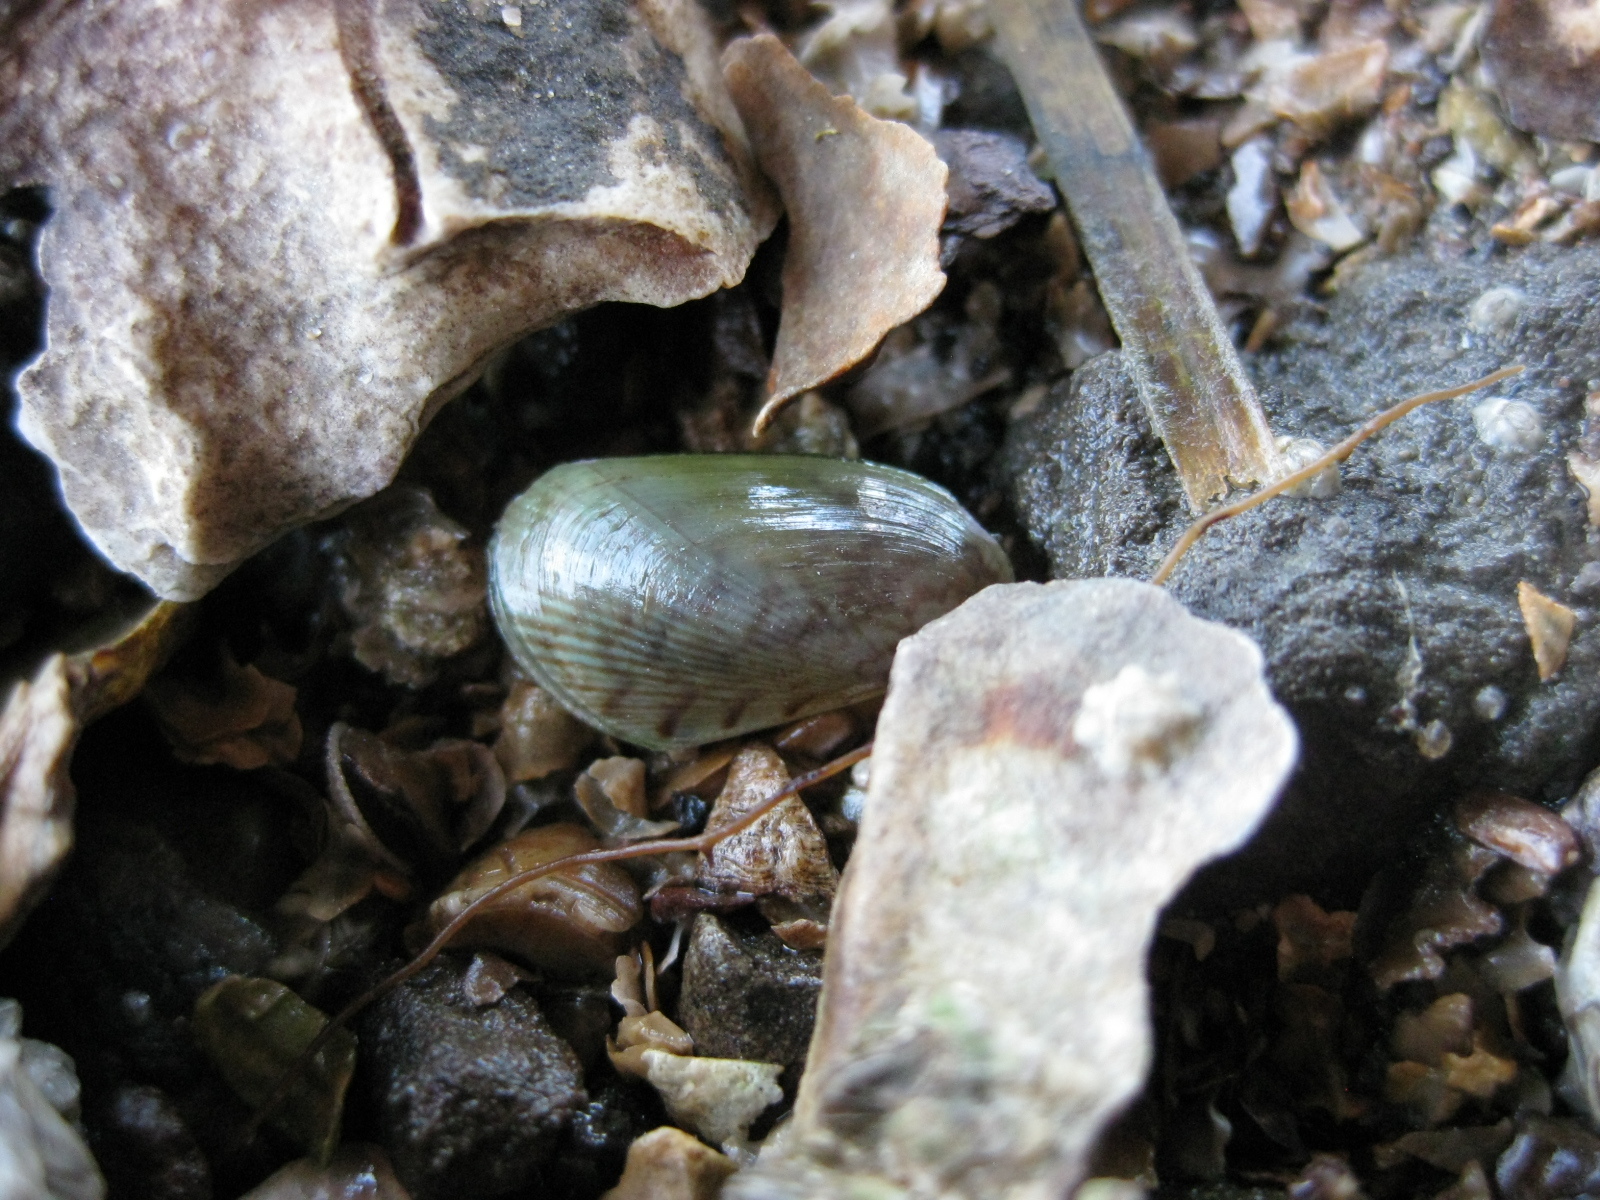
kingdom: Animalia
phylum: Mollusca
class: Bivalvia
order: Mytilida
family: Mytilidae
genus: Arcuatula
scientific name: Arcuatula senhousia
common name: Asian mussel
